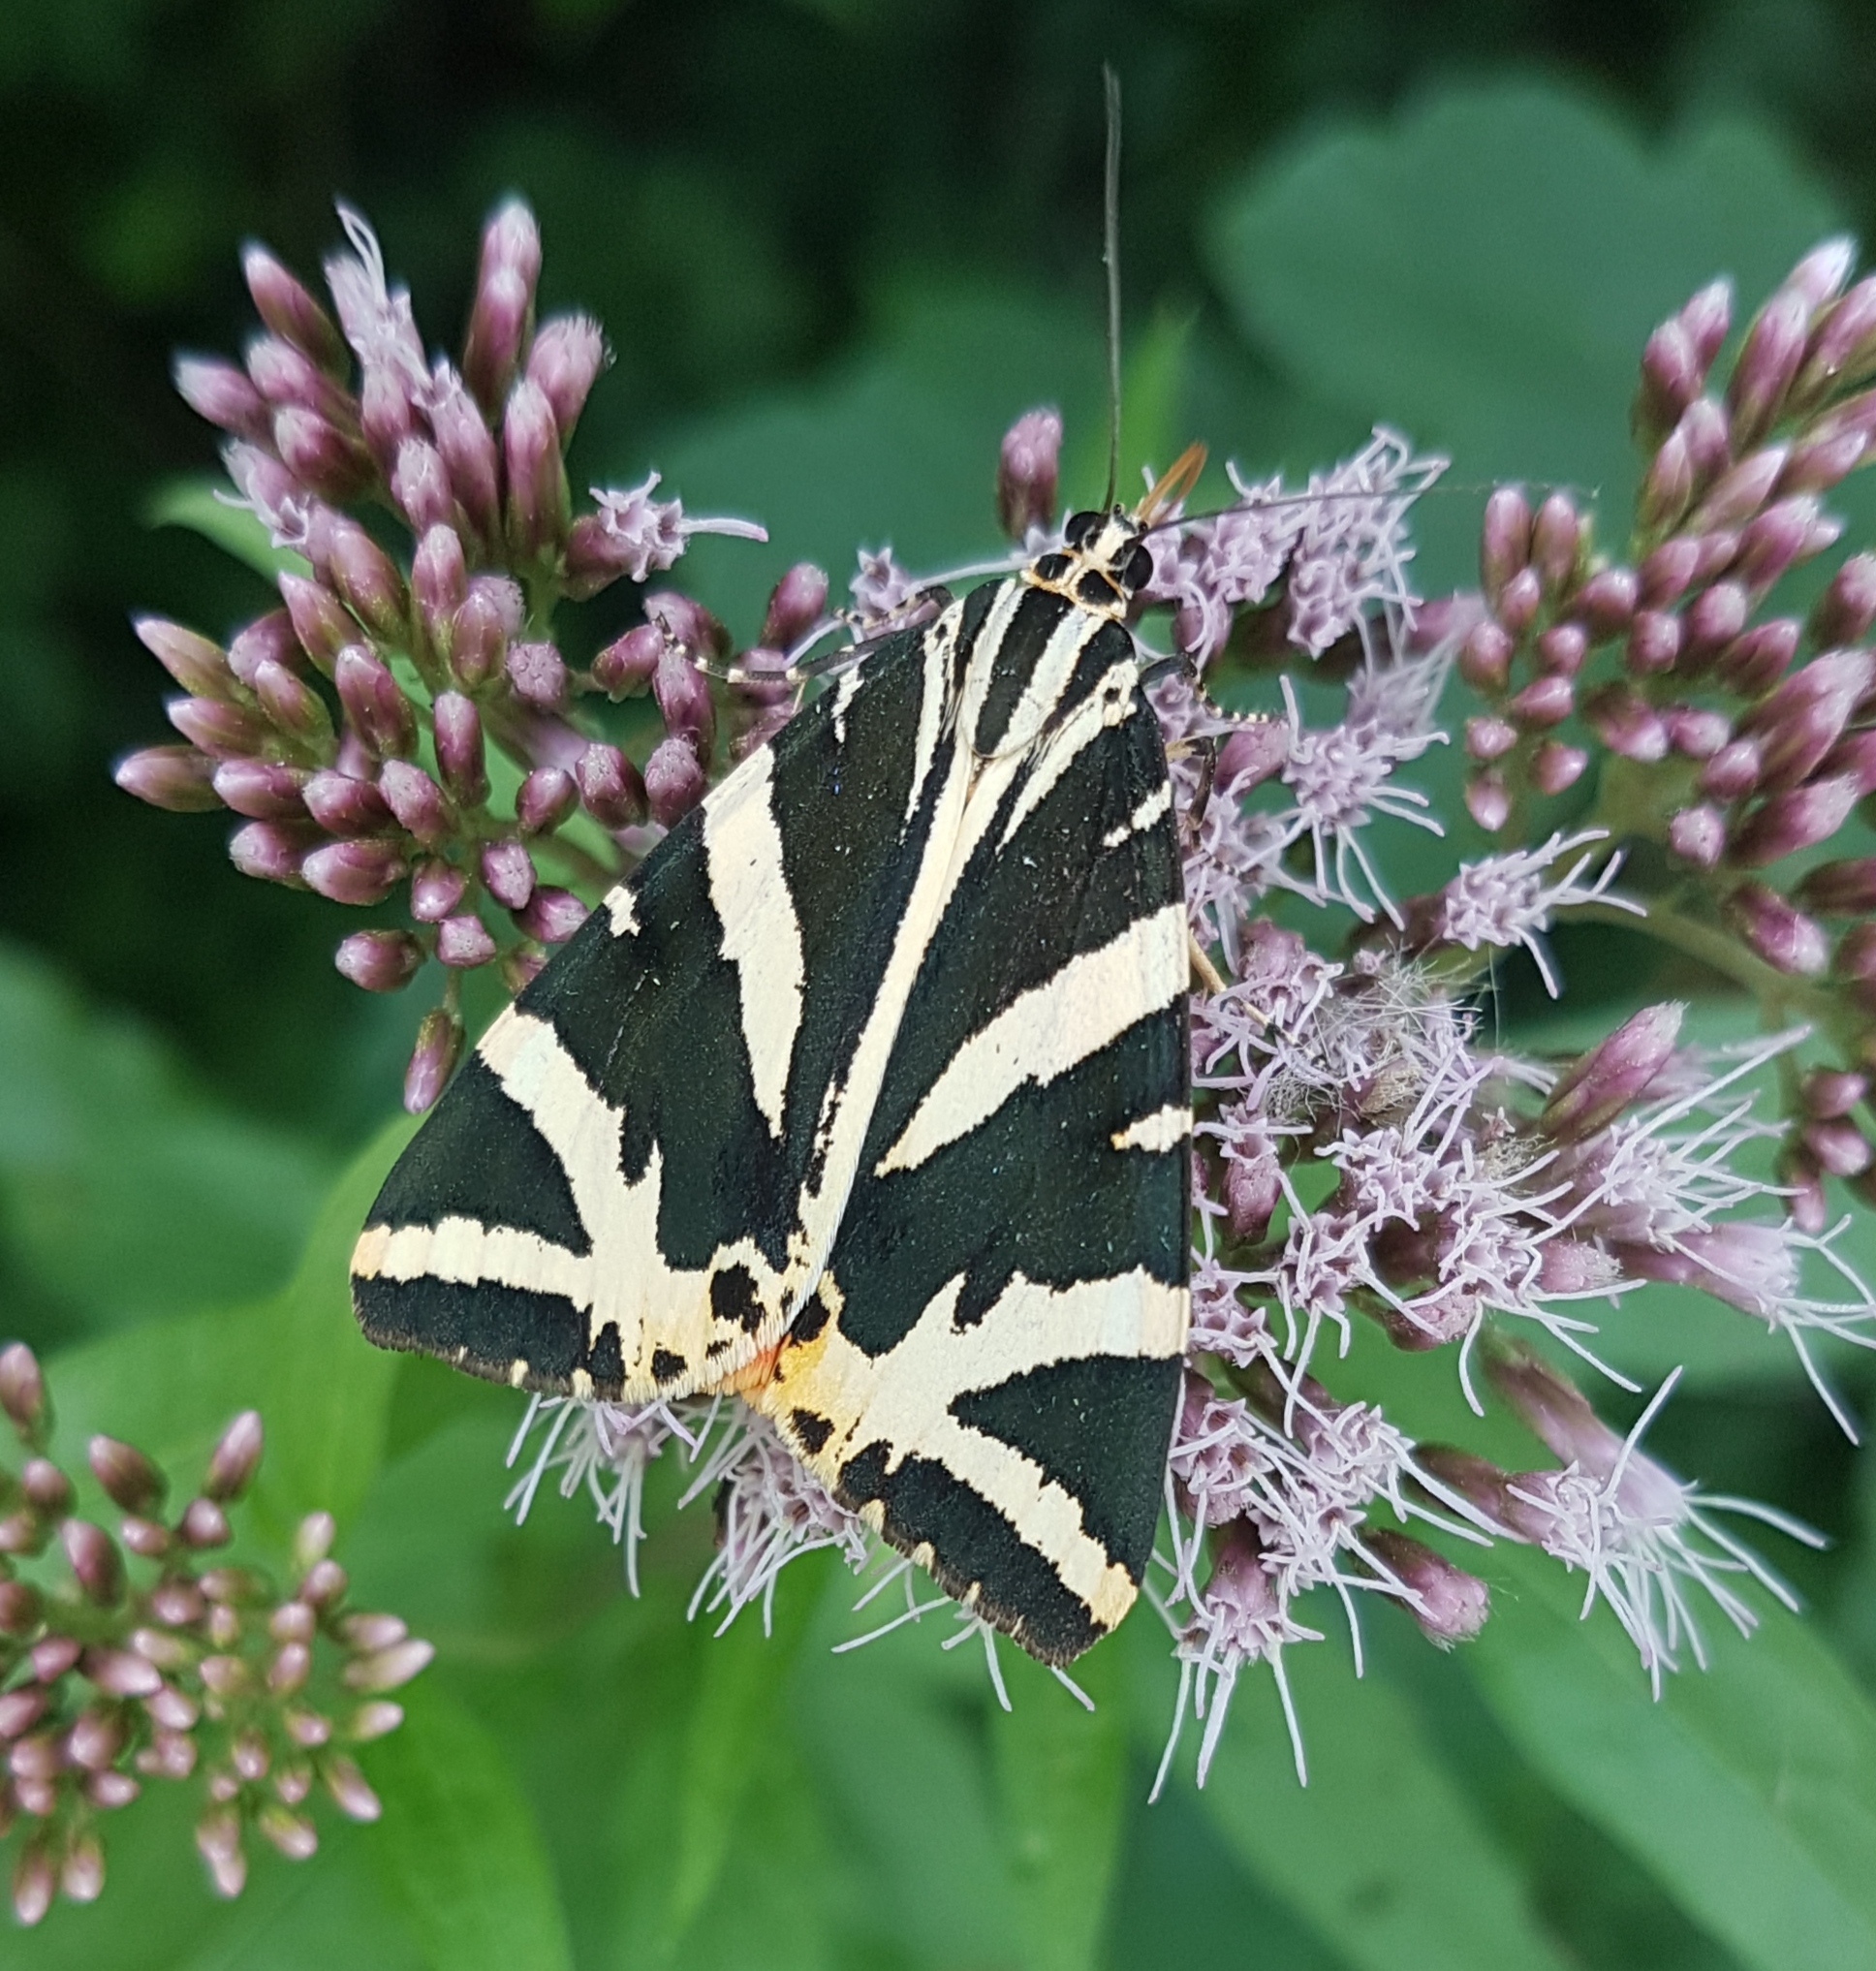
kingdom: Animalia
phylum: Arthropoda
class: Insecta
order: Lepidoptera
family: Erebidae
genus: Euplagia
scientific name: Euplagia quadripunctaria
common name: Jersey tiger
